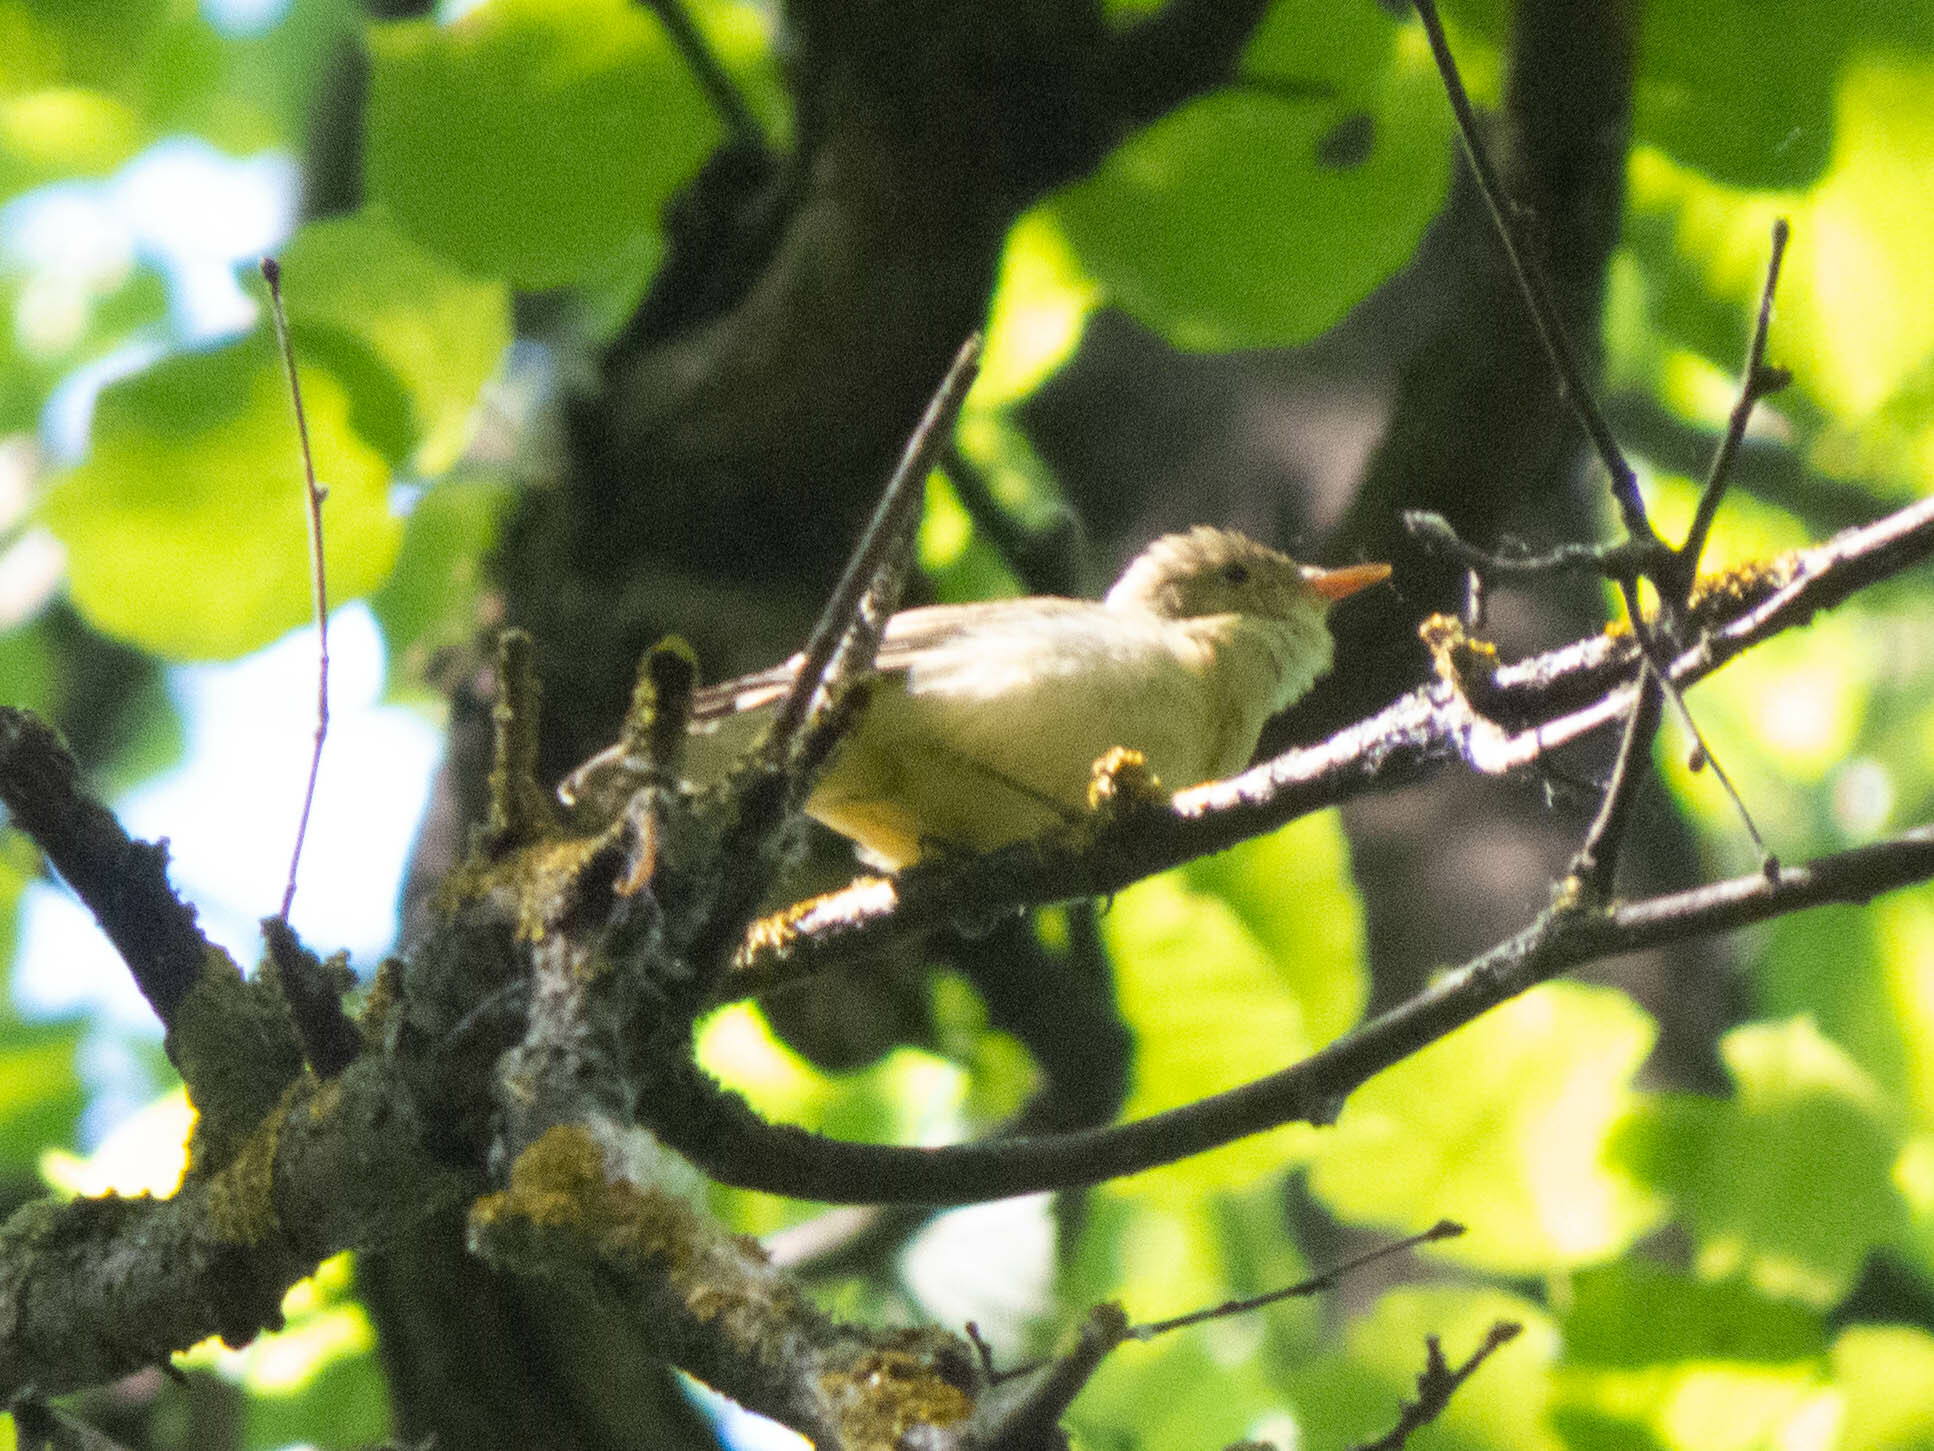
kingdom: Animalia
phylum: Chordata
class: Aves
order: Passeriformes
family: Acrocephalidae
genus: Hippolais
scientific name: Hippolais icterina
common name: Icterine warbler
